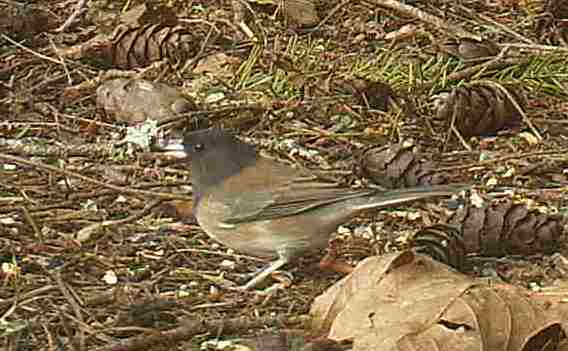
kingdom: Animalia
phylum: Chordata
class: Aves
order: Passeriformes
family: Passerellidae
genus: Junco
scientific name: Junco hyemalis
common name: Dark-eyed junco
